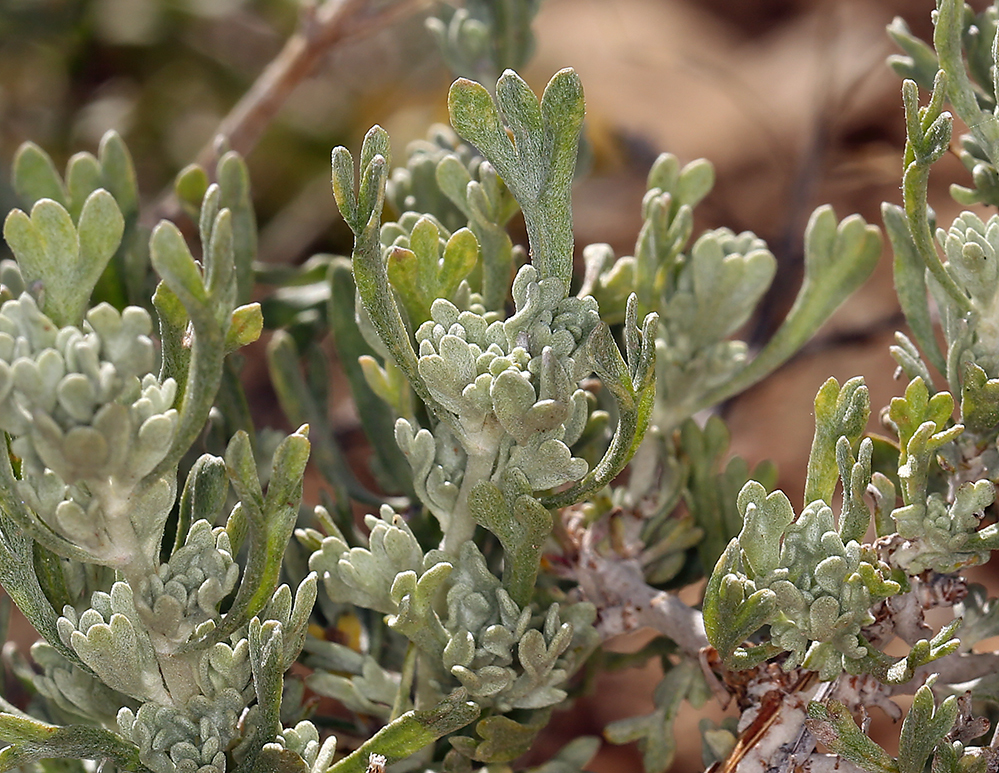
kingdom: Plantae
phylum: Tracheophyta
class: Magnoliopsida
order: Asterales
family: Asteraceae
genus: Artemisia
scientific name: Artemisia rothrockii
